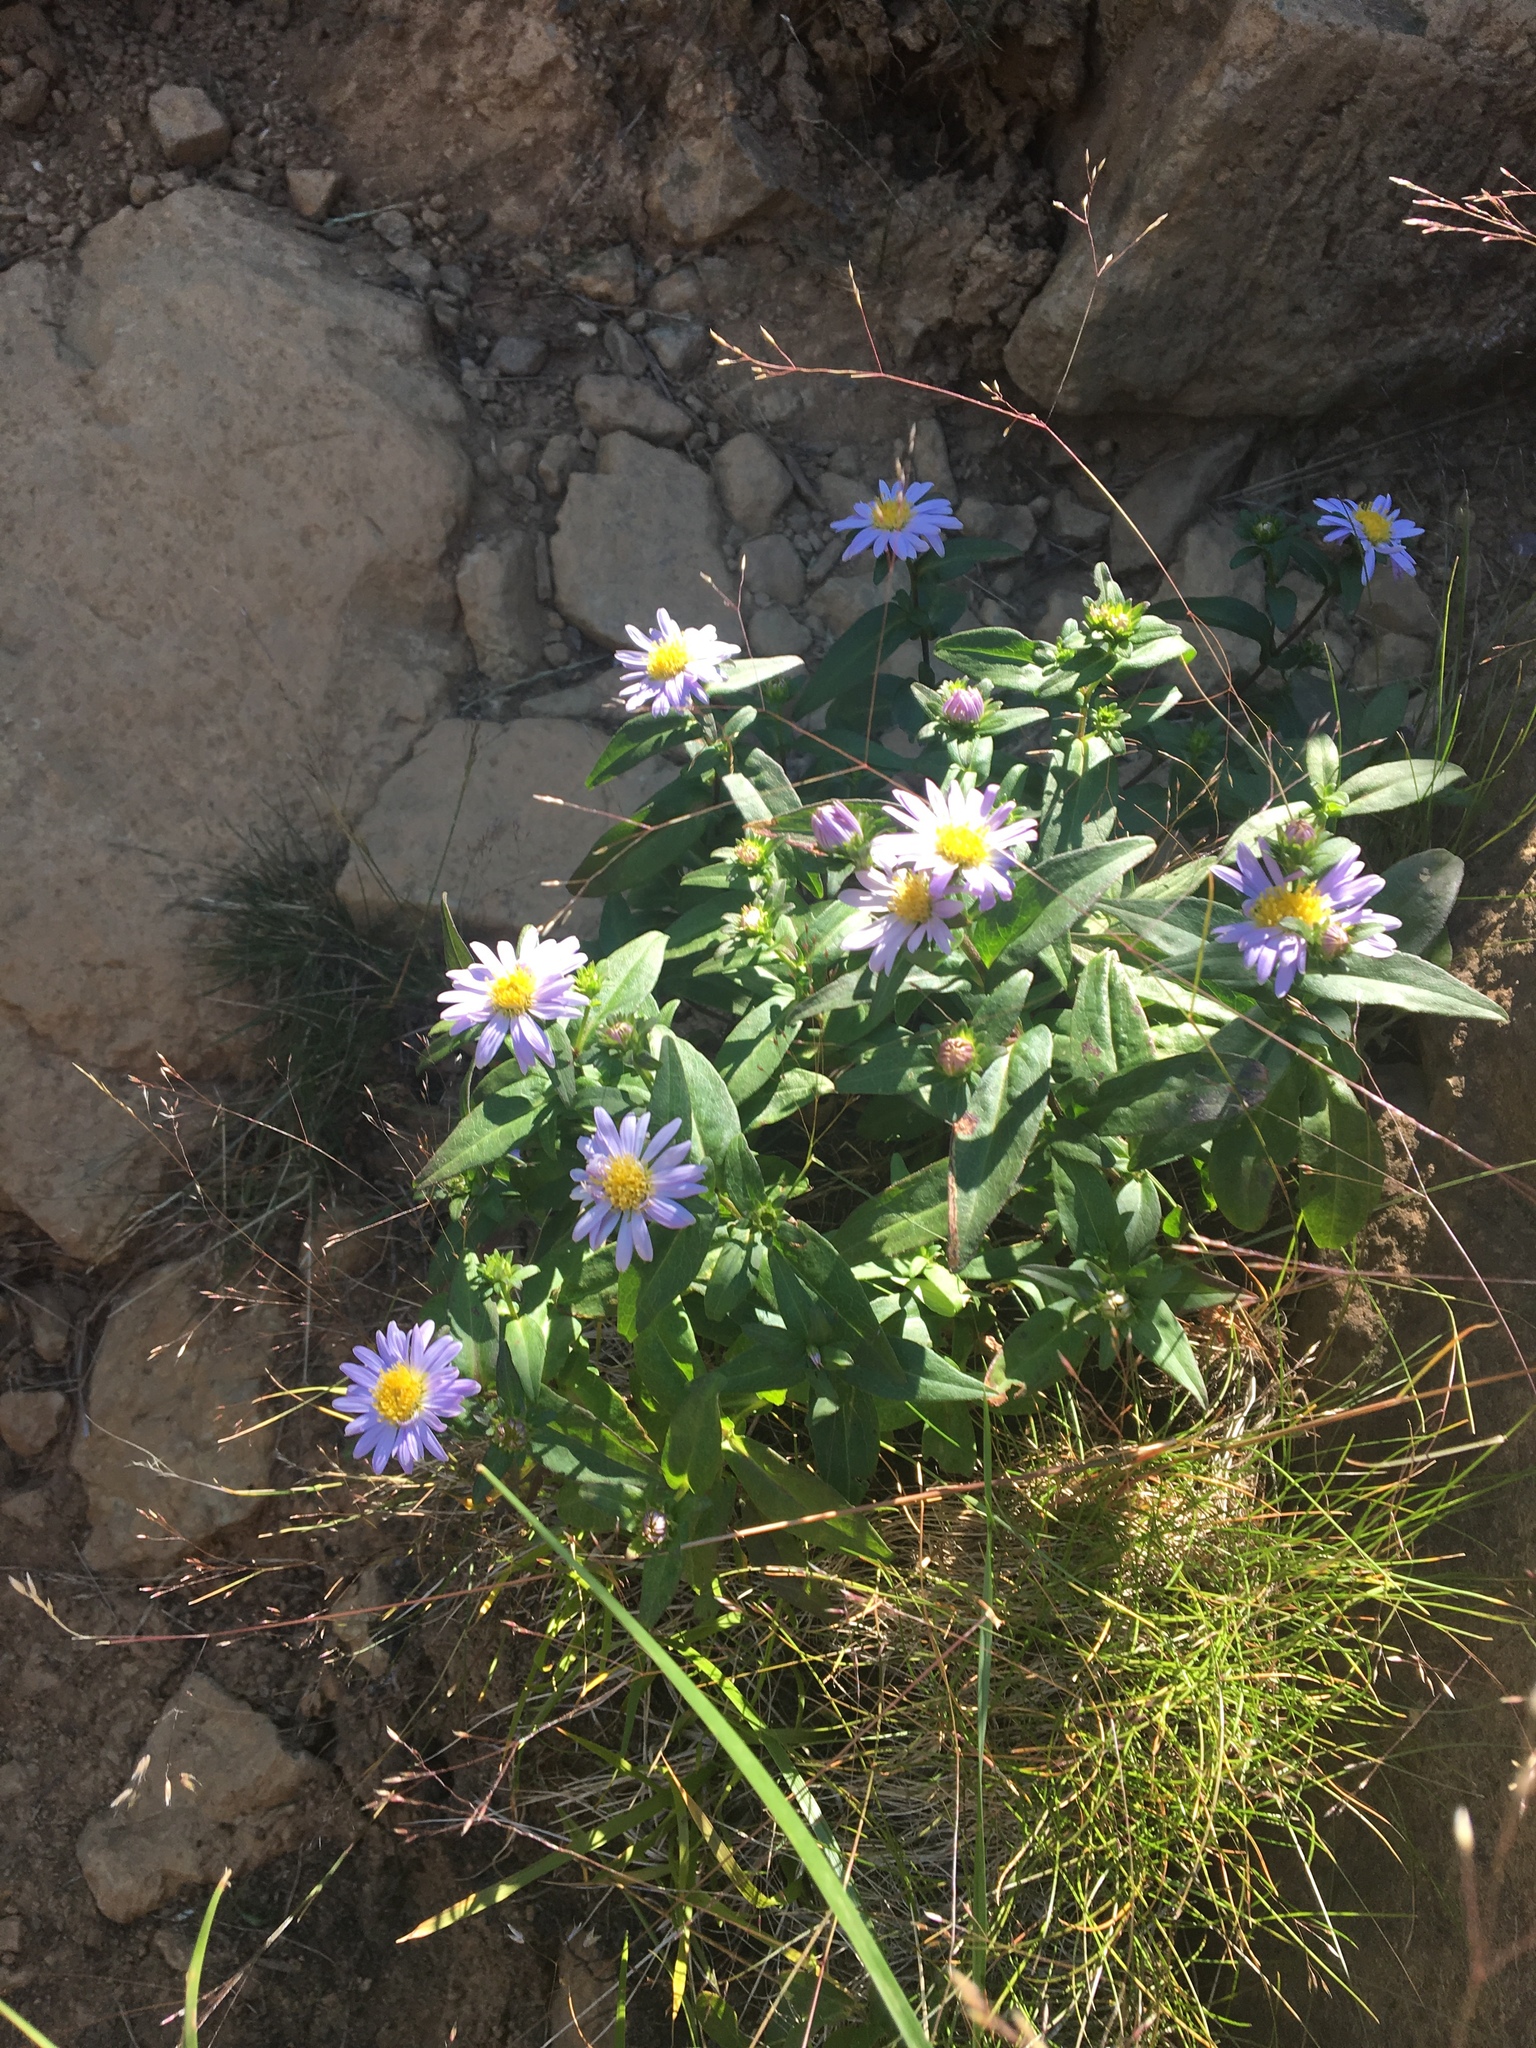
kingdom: Plantae
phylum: Tracheophyta
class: Magnoliopsida
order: Asterales
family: Asteraceae
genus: Symphyotrichum
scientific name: Symphyotrichum novi-belgii
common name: Michaelmas daisy
